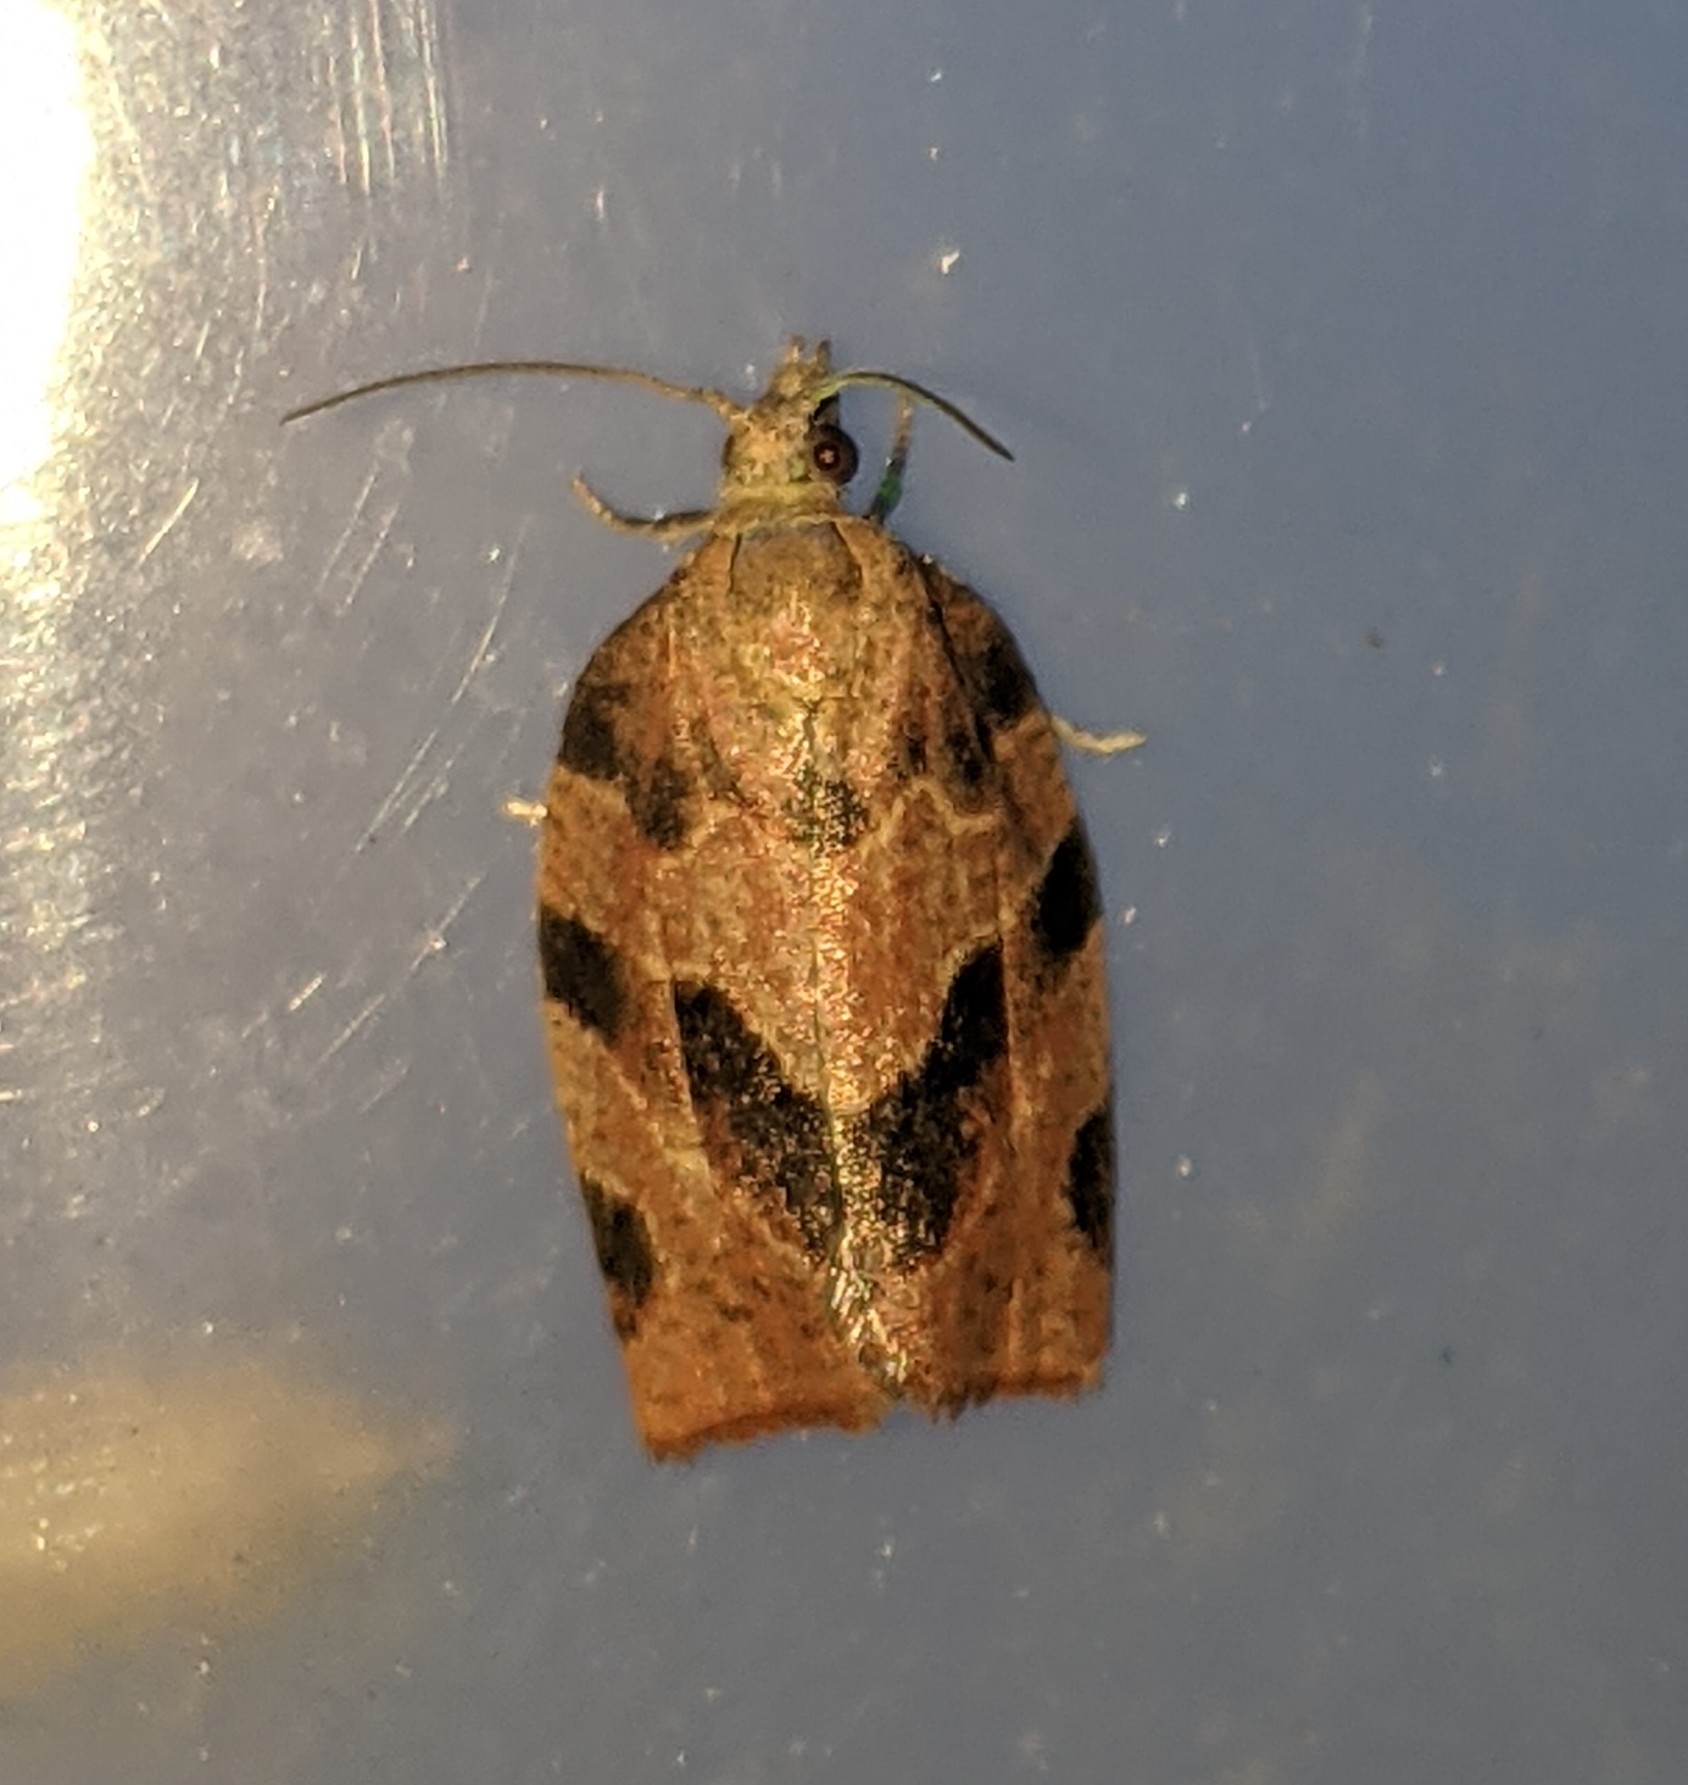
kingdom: Animalia
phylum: Arthropoda
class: Insecta
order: Lepidoptera
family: Tortricidae
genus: Pandemis
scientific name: Pandemis limitata
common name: Three-lined leafroller moth
